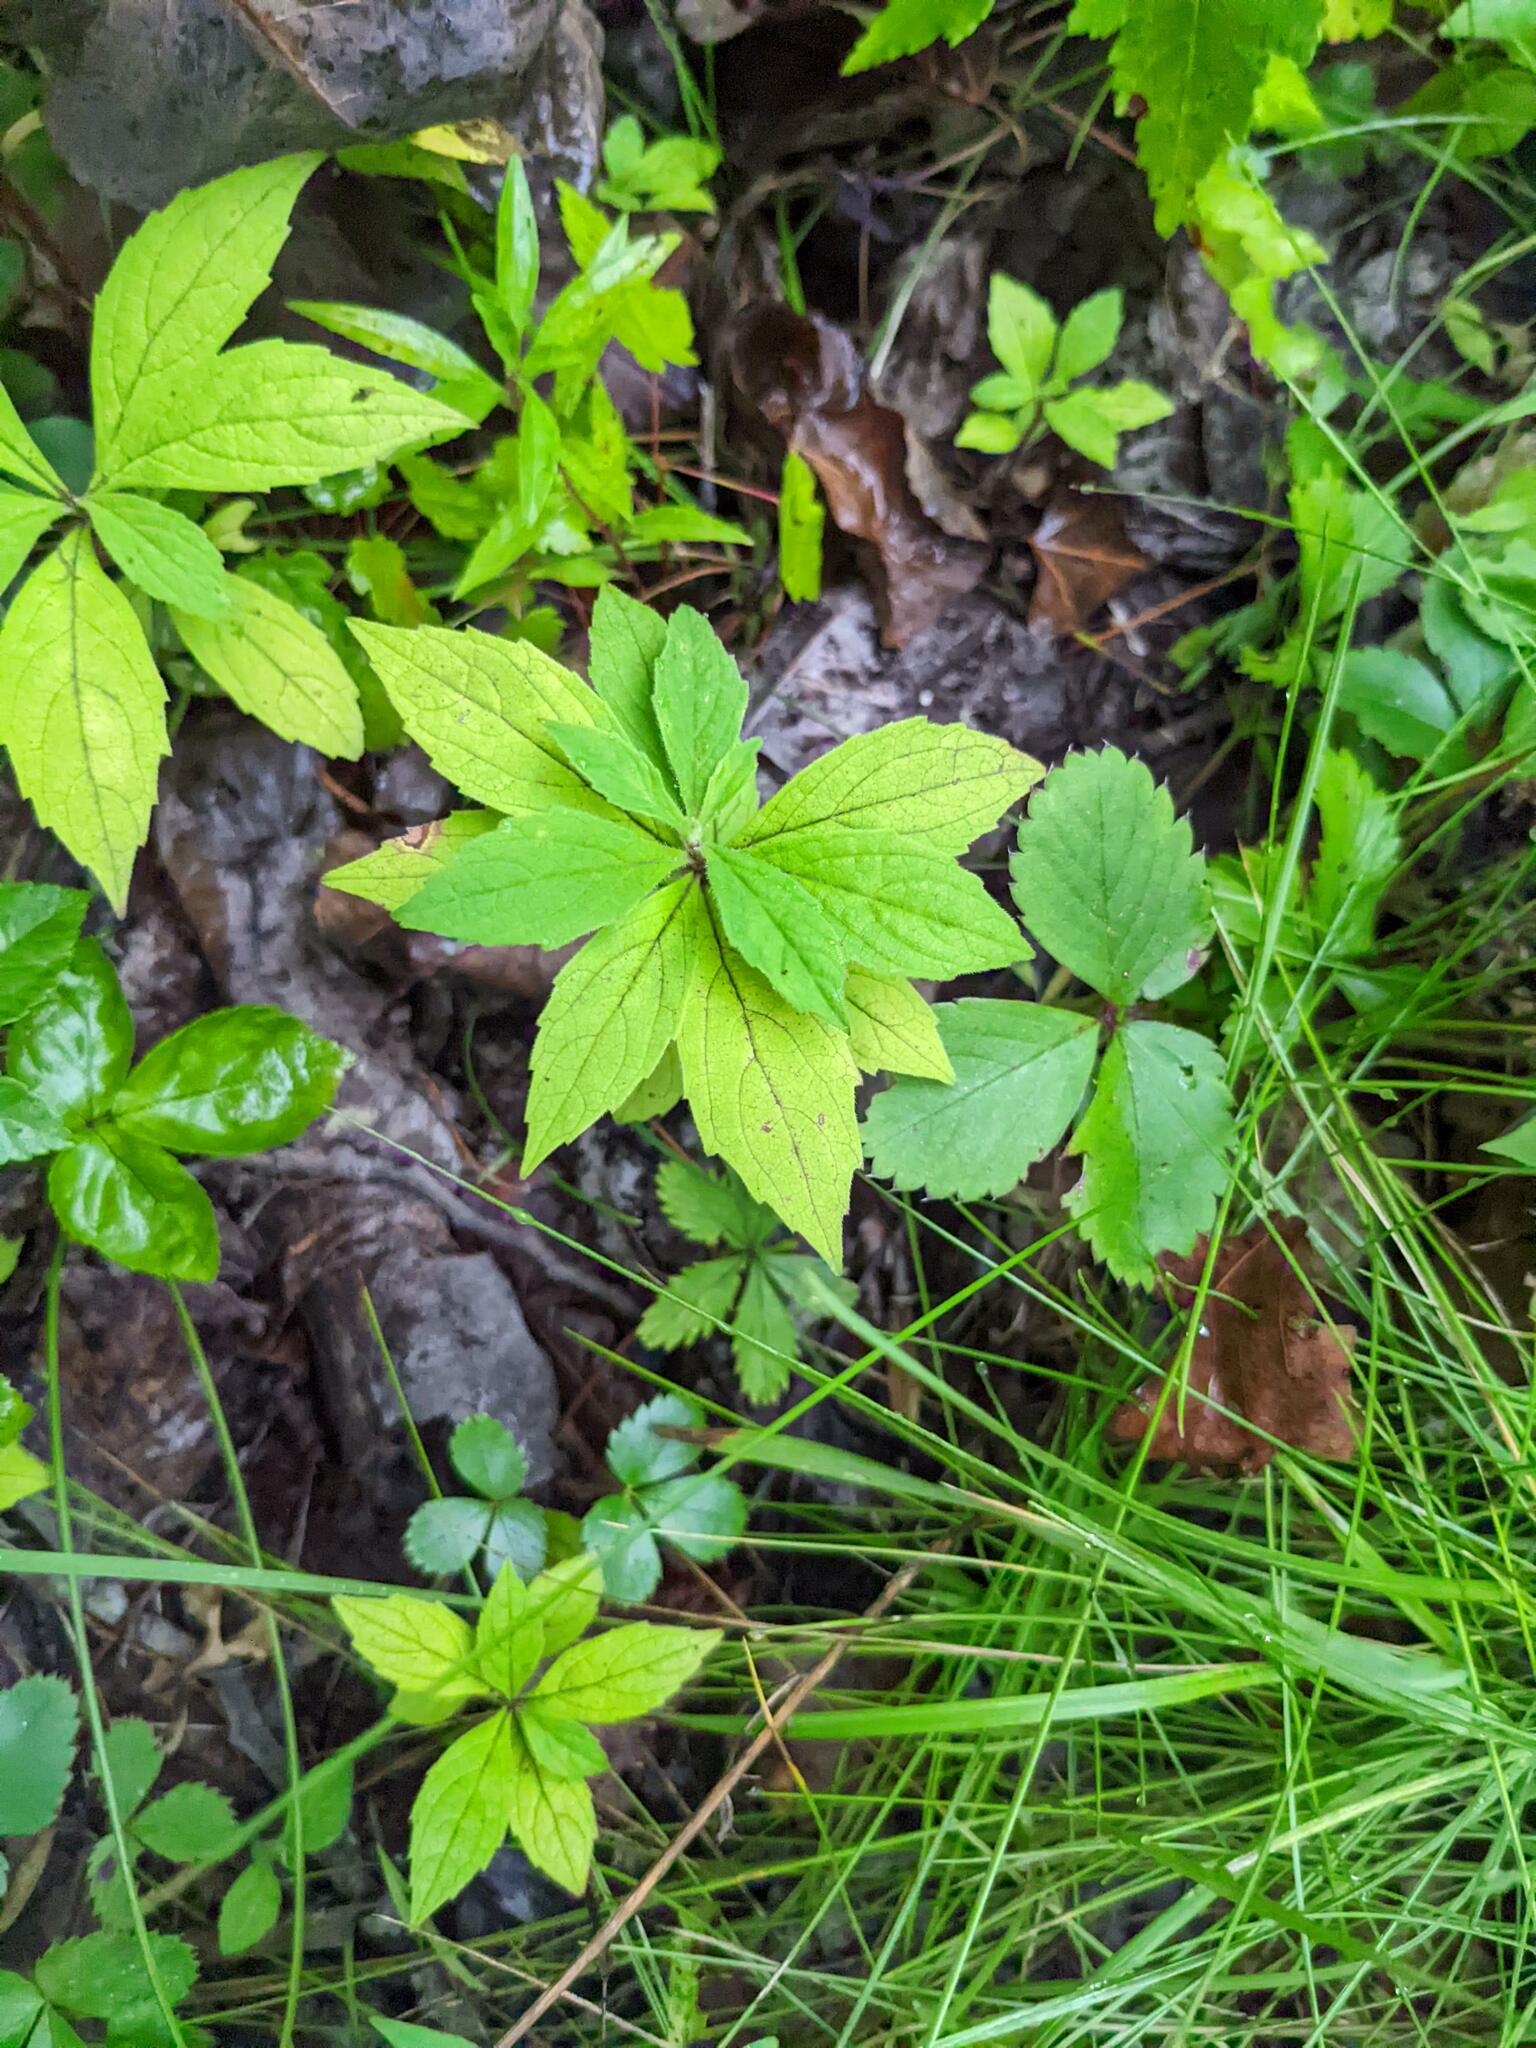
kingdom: Plantae
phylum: Tracheophyta
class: Magnoliopsida
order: Asterales
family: Asteraceae
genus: Oclemena
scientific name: Oclemena acuminata
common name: Mountain aster
